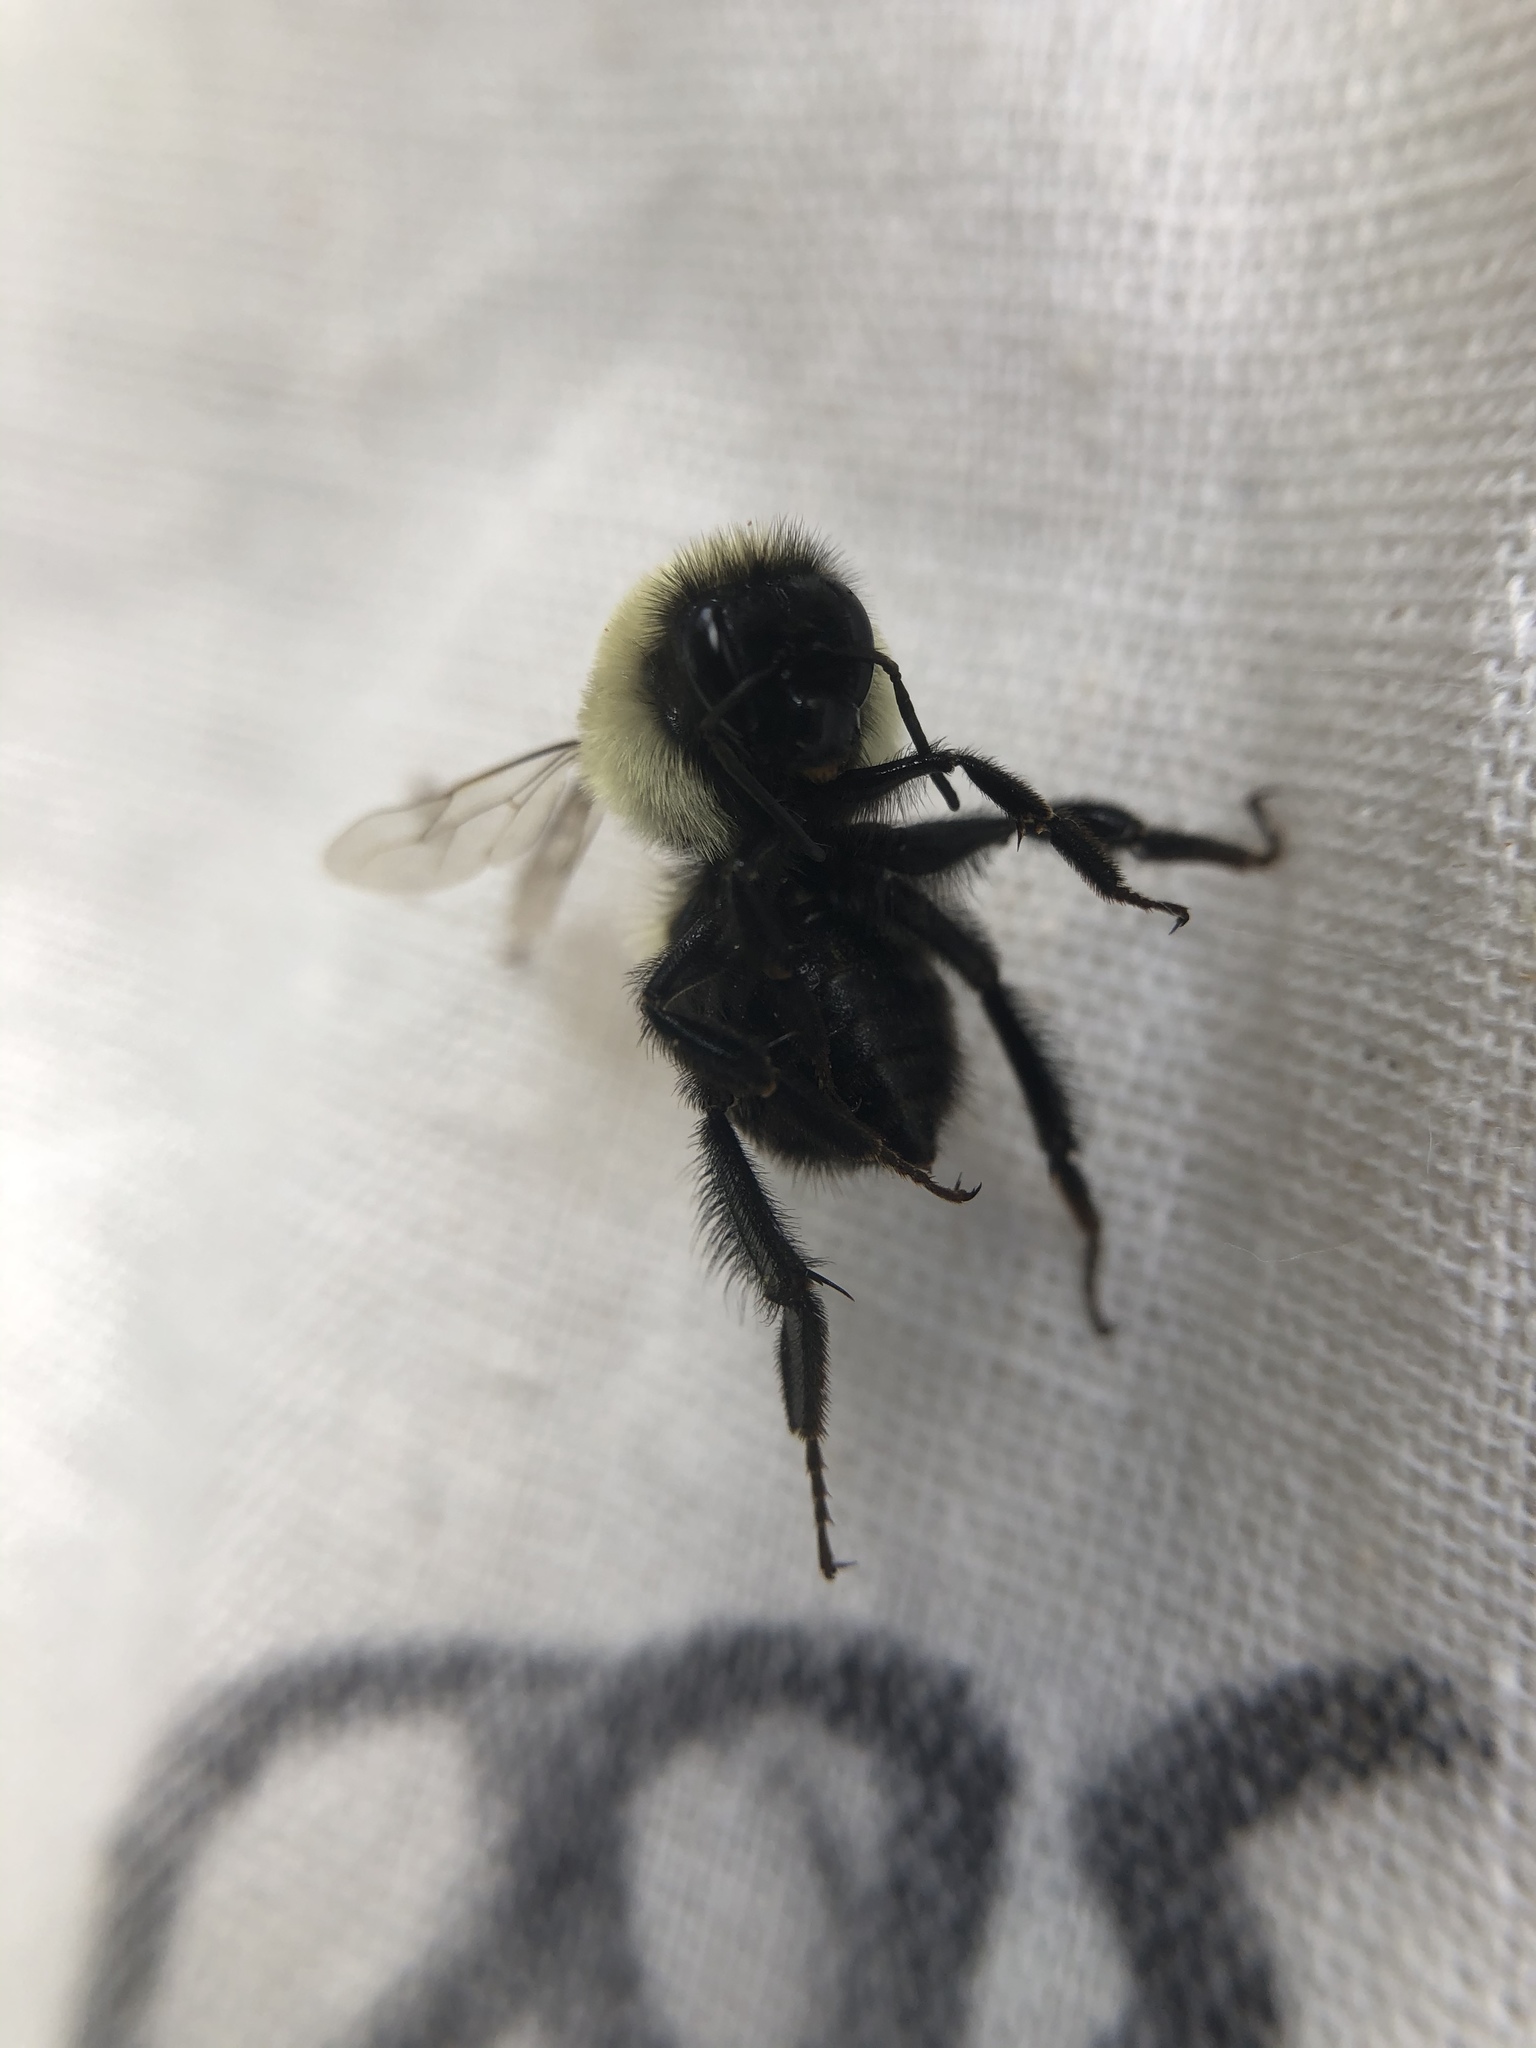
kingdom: Animalia
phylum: Arthropoda
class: Insecta
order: Hymenoptera
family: Apidae
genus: Bombus
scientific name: Bombus impatiens
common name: Common eastern bumble bee
